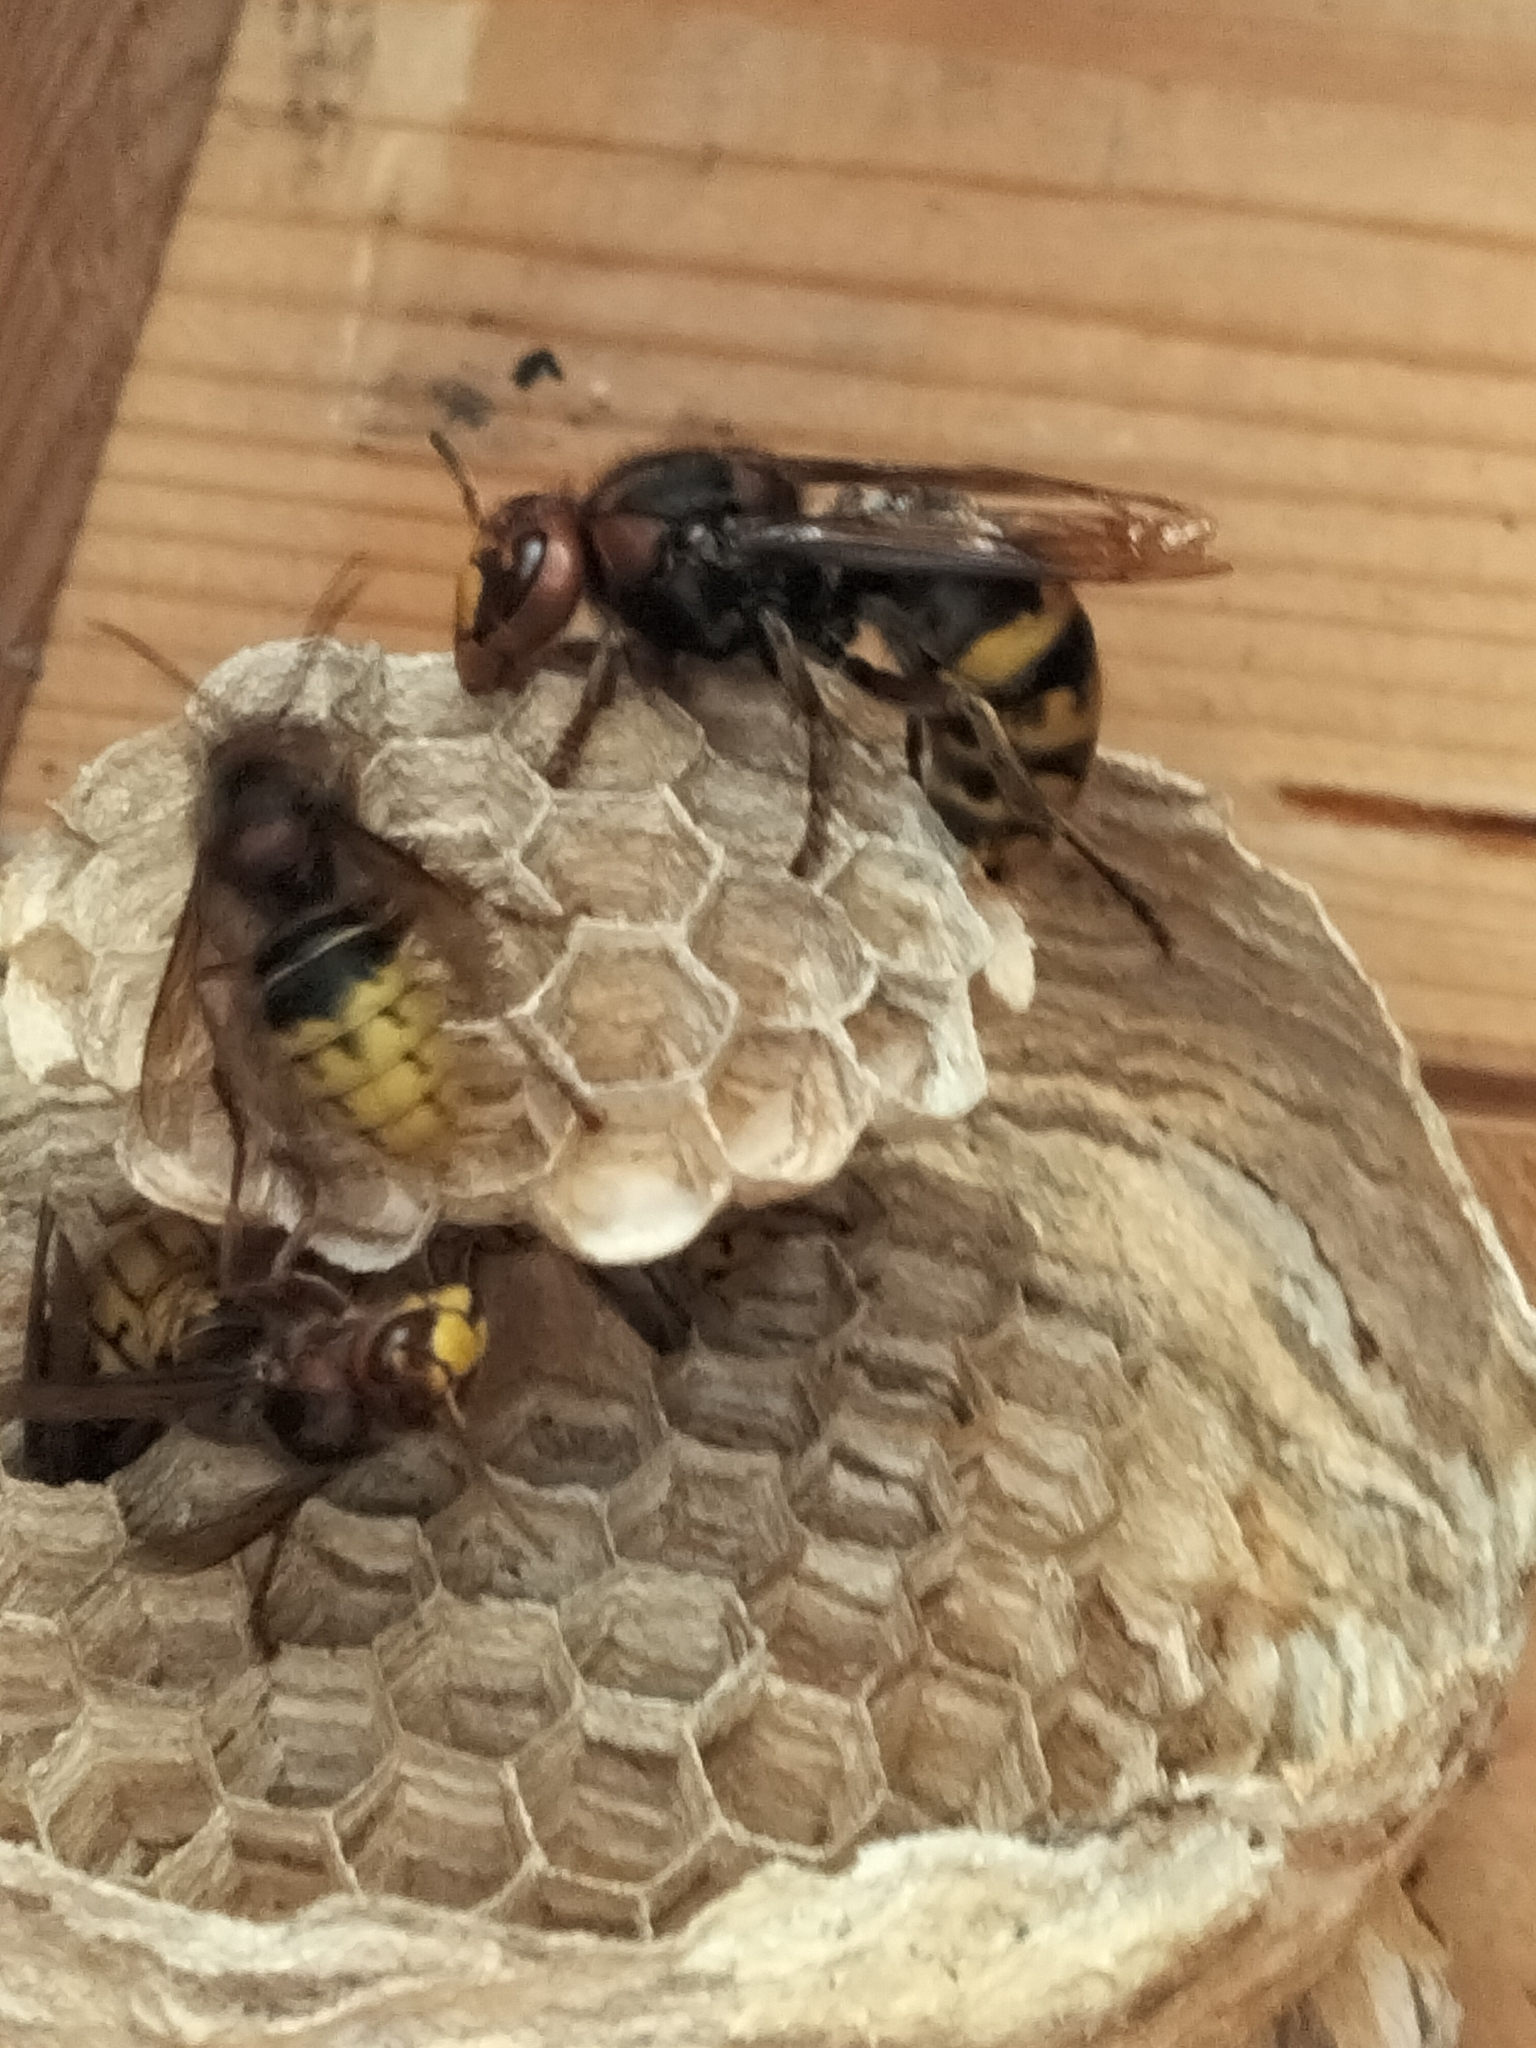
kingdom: Animalia
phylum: Arthropoda
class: Insecta
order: Hymenoptera
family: Vespidae
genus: Vespa
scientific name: Vespa crabro
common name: Hornet
